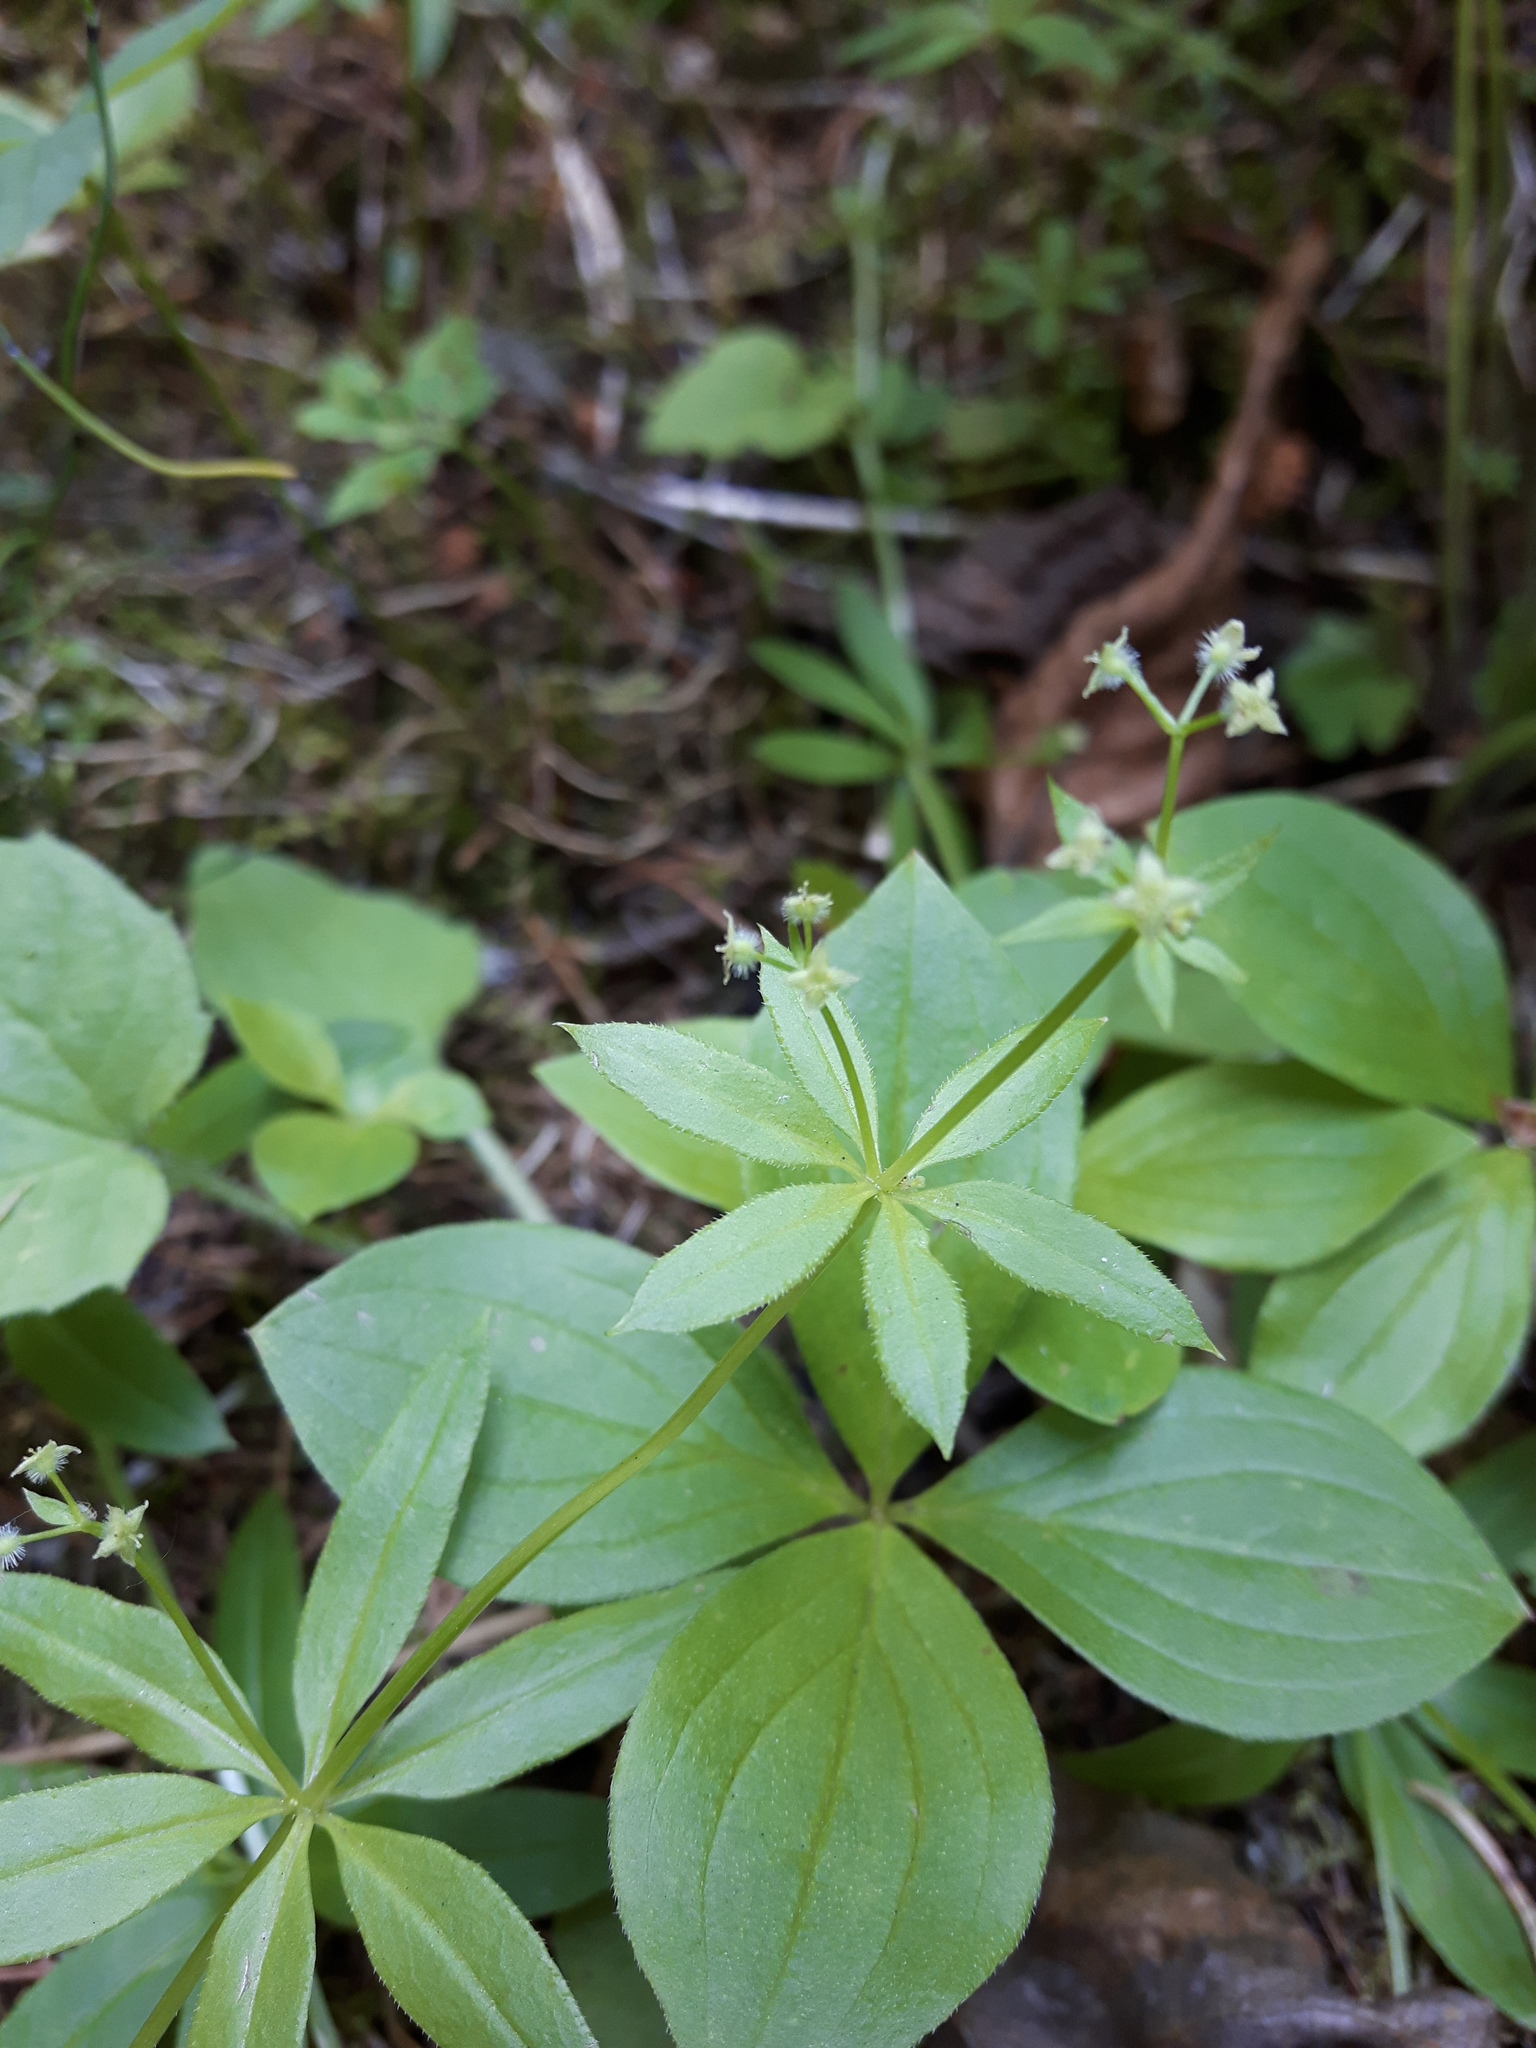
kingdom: Plantae
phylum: Tracheophyta
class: Magnoliopsida
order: Gentianales
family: Rubiaceae
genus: Galium
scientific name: Galium triflorum
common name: Fragrant bedstraw
